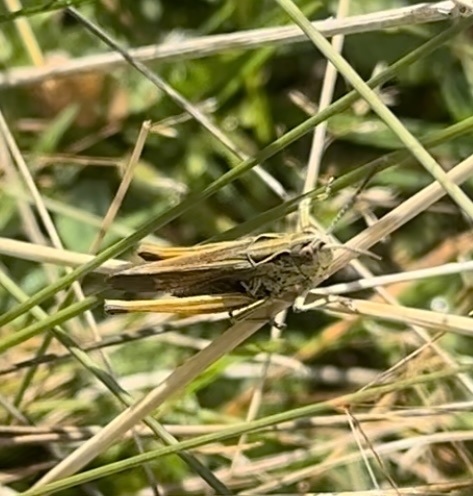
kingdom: Animalia
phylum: Arthropoda
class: Insecta
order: Orthoptera
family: Acrididae
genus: Omocestus
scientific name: Omocestus viridulus
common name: Common green grasshopper
